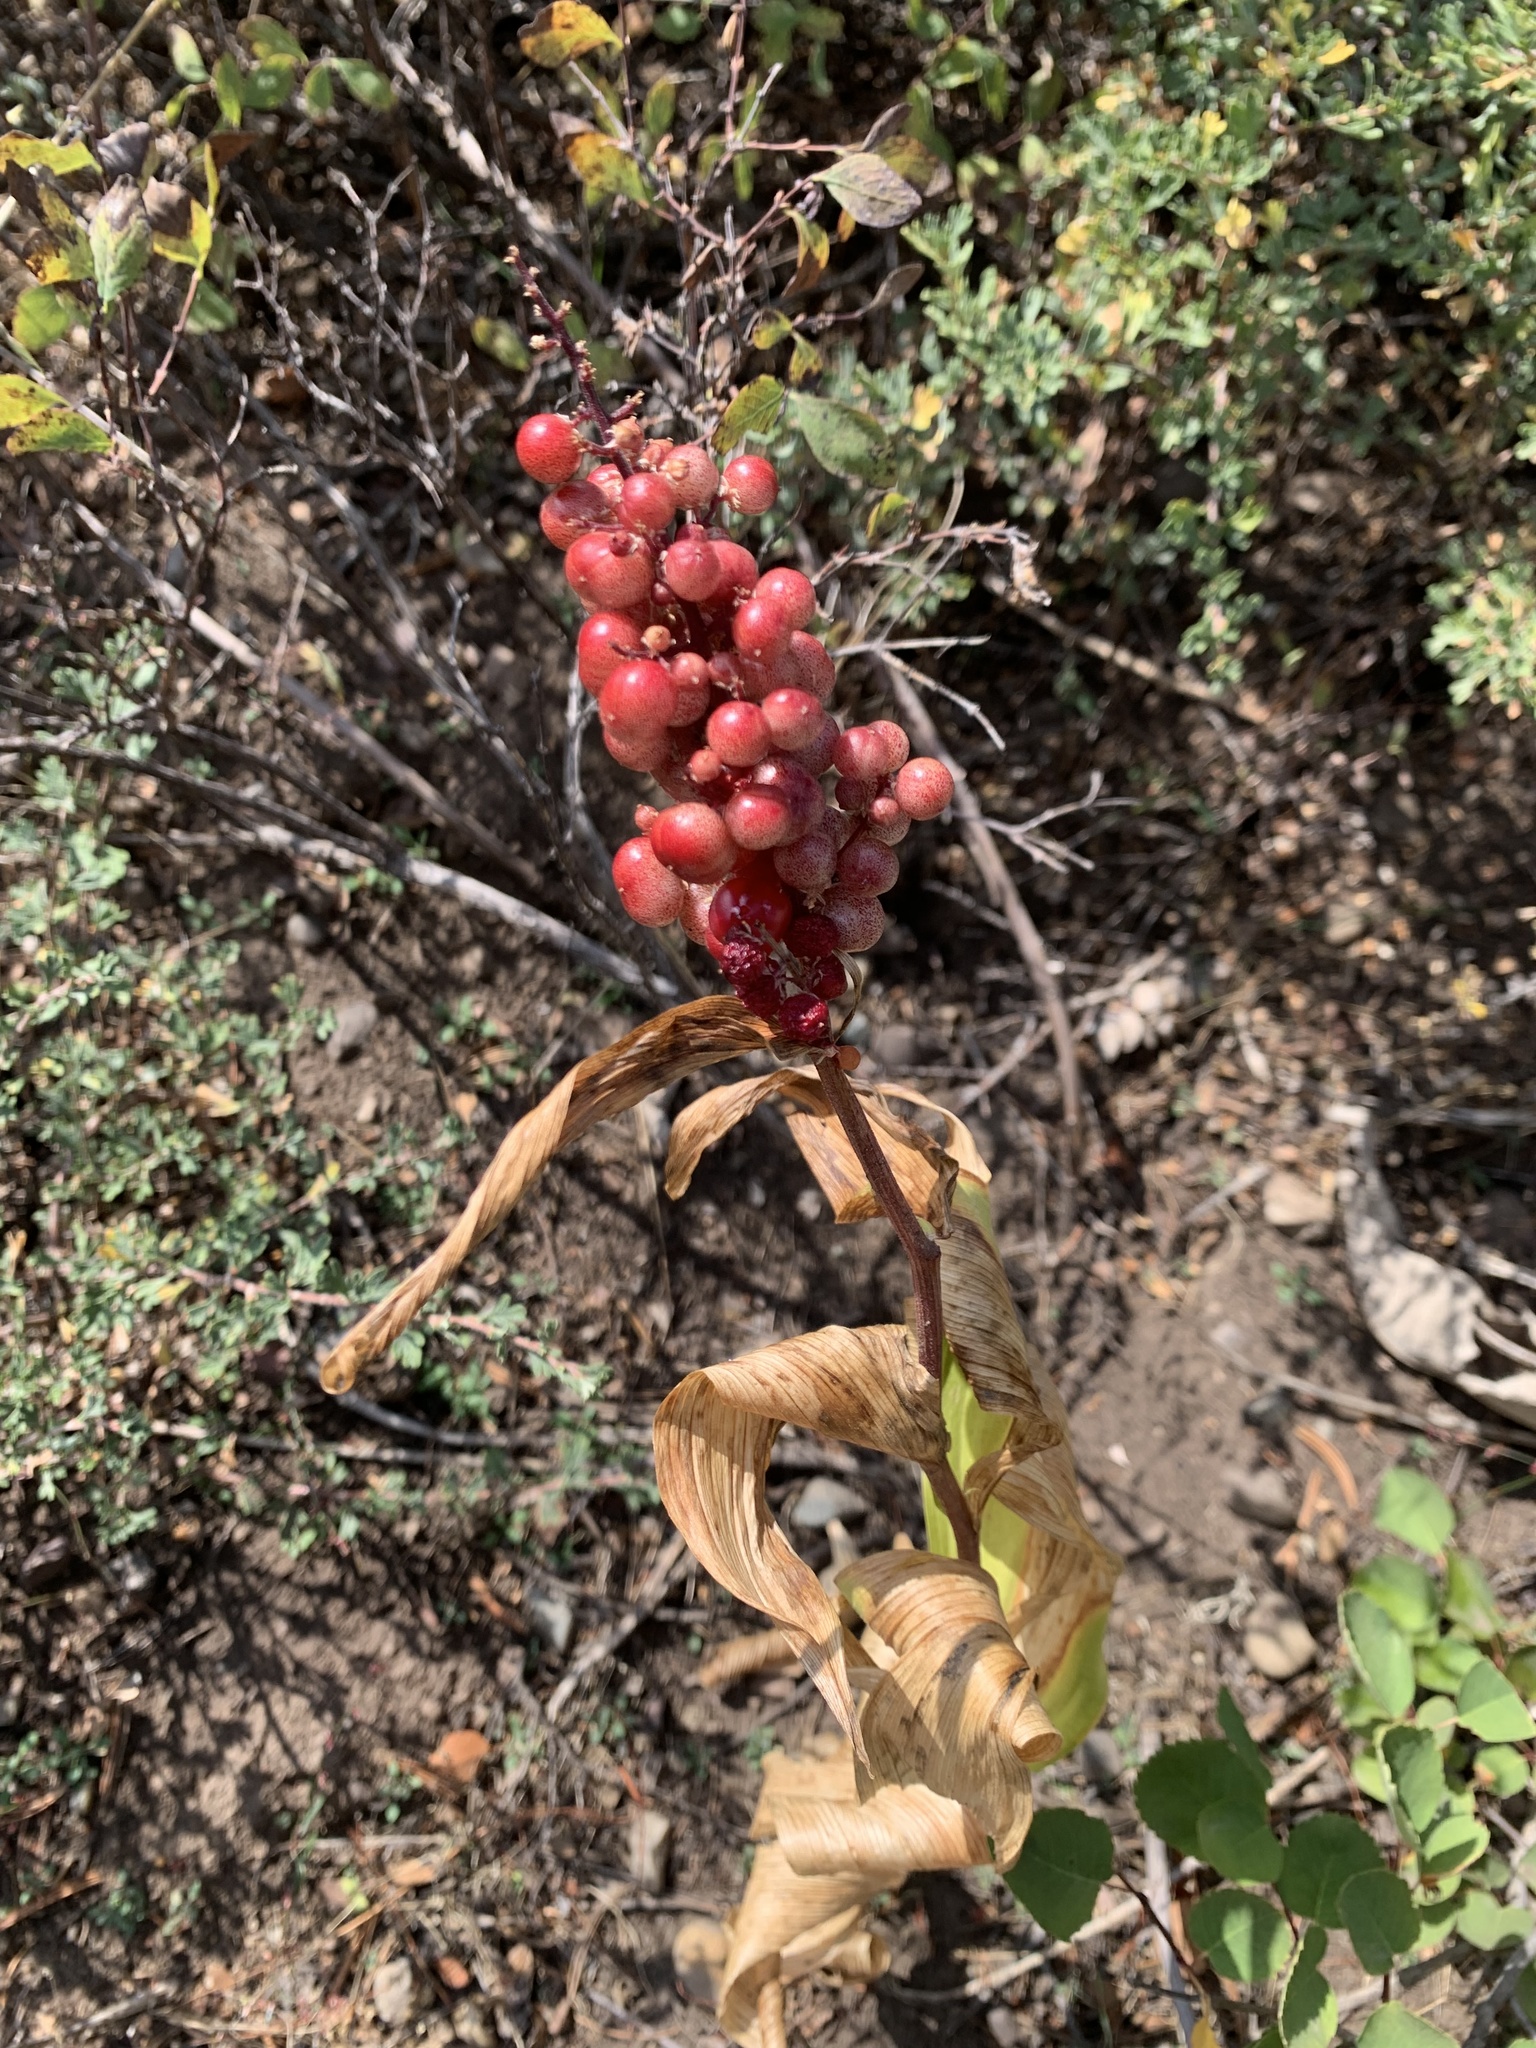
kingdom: Plantae
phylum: Tracheophyta
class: Liliopsida
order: Asparagales
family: Asparagaceae
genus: Maianthemum
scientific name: Maianthemum racemosum
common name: False spikenard
